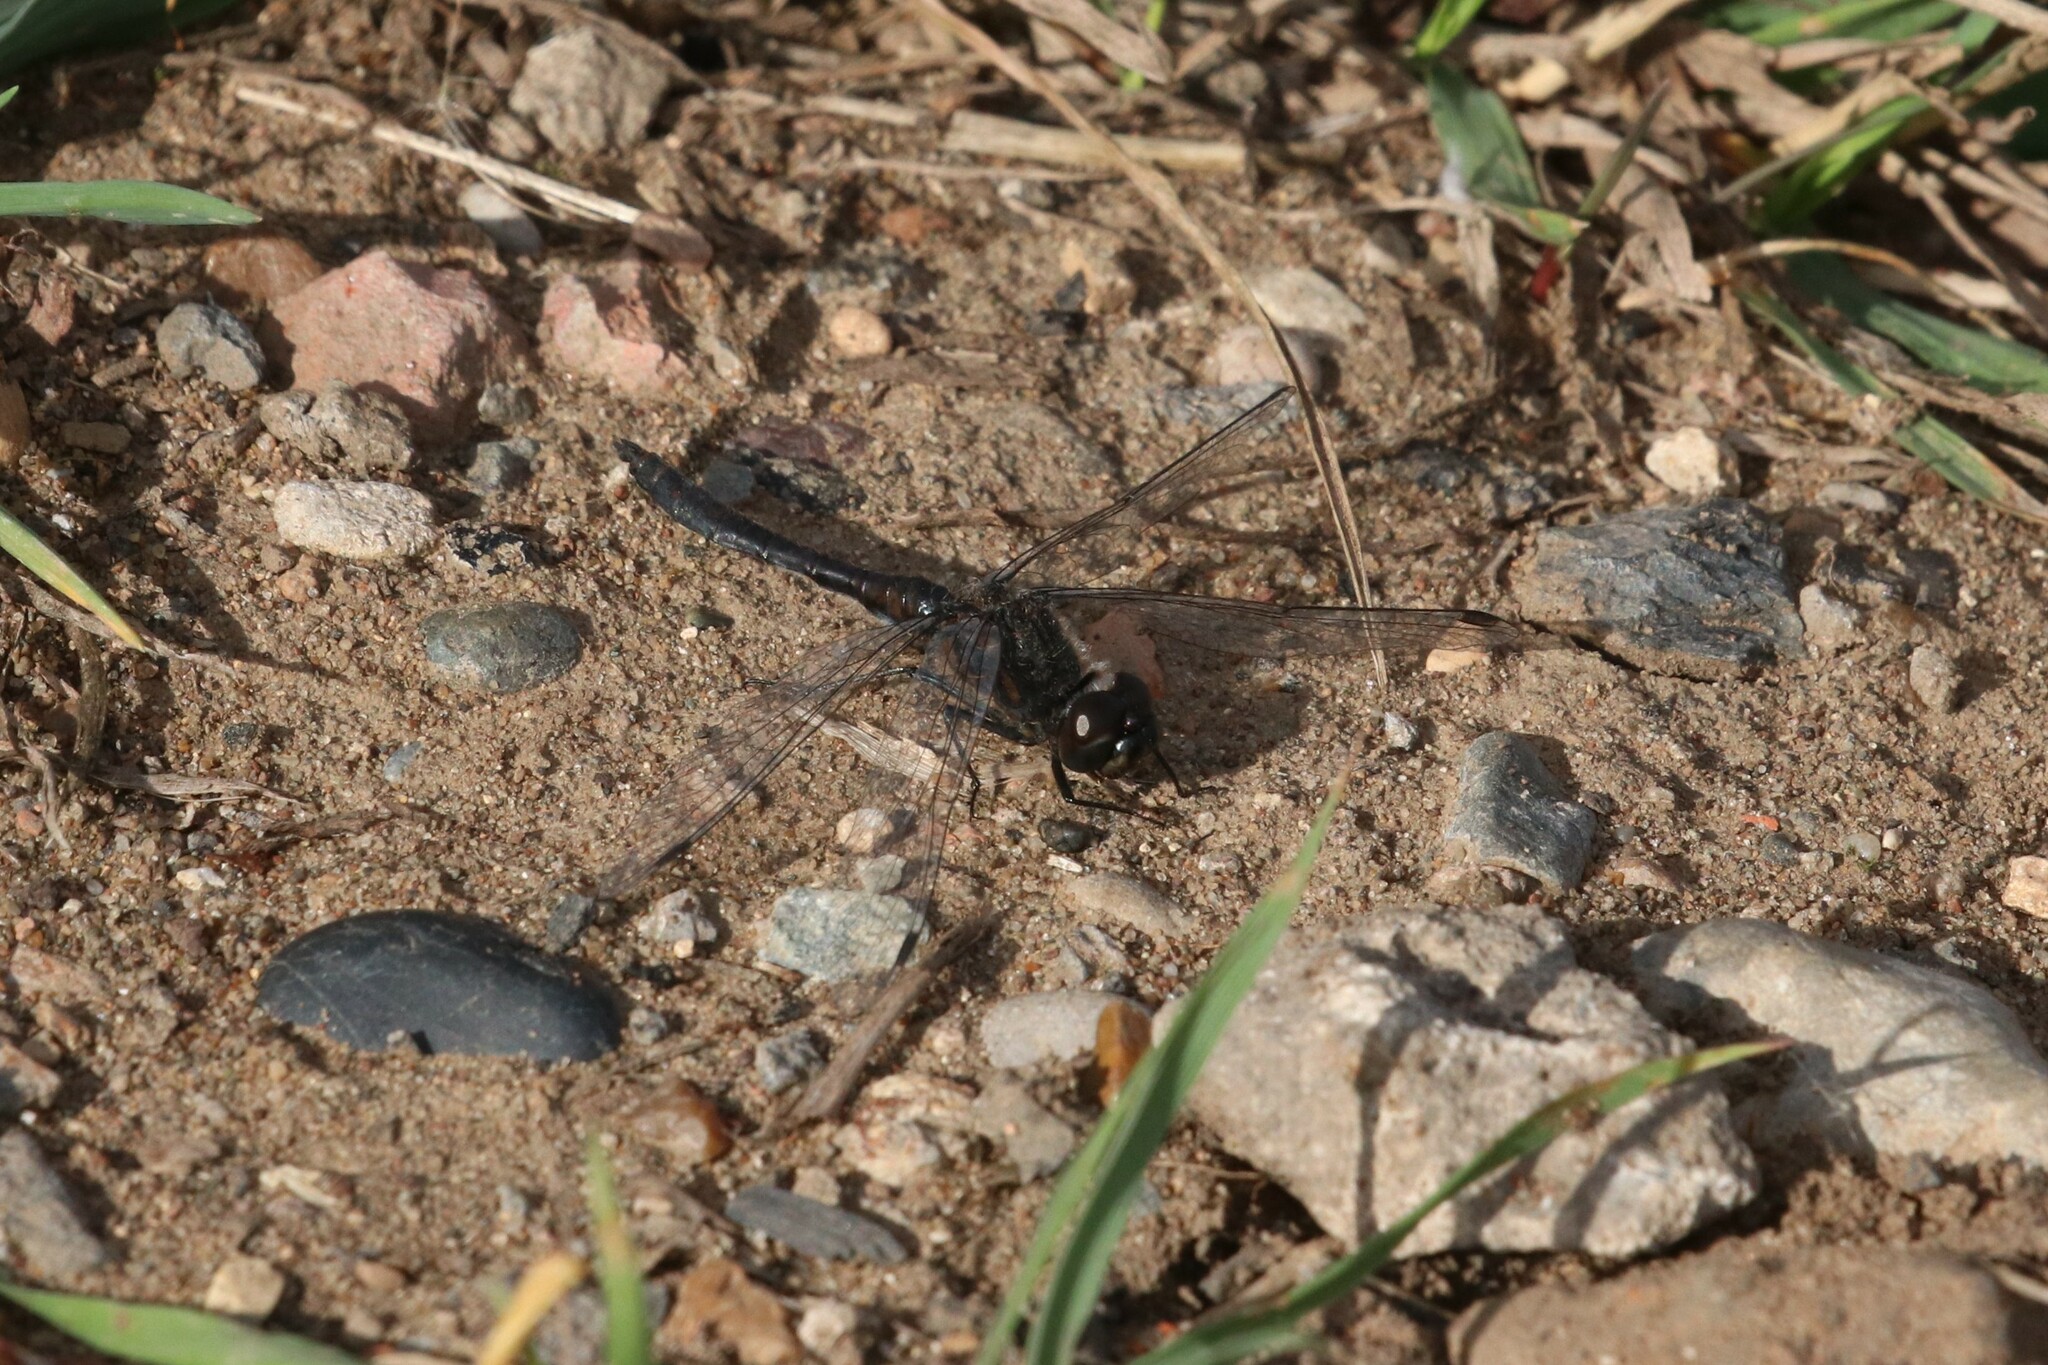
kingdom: Animalia
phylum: Arthropoda
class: Insecta
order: Odonata
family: Libellulidae
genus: Sympetrum
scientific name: Sympetrum danae
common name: Black darter
